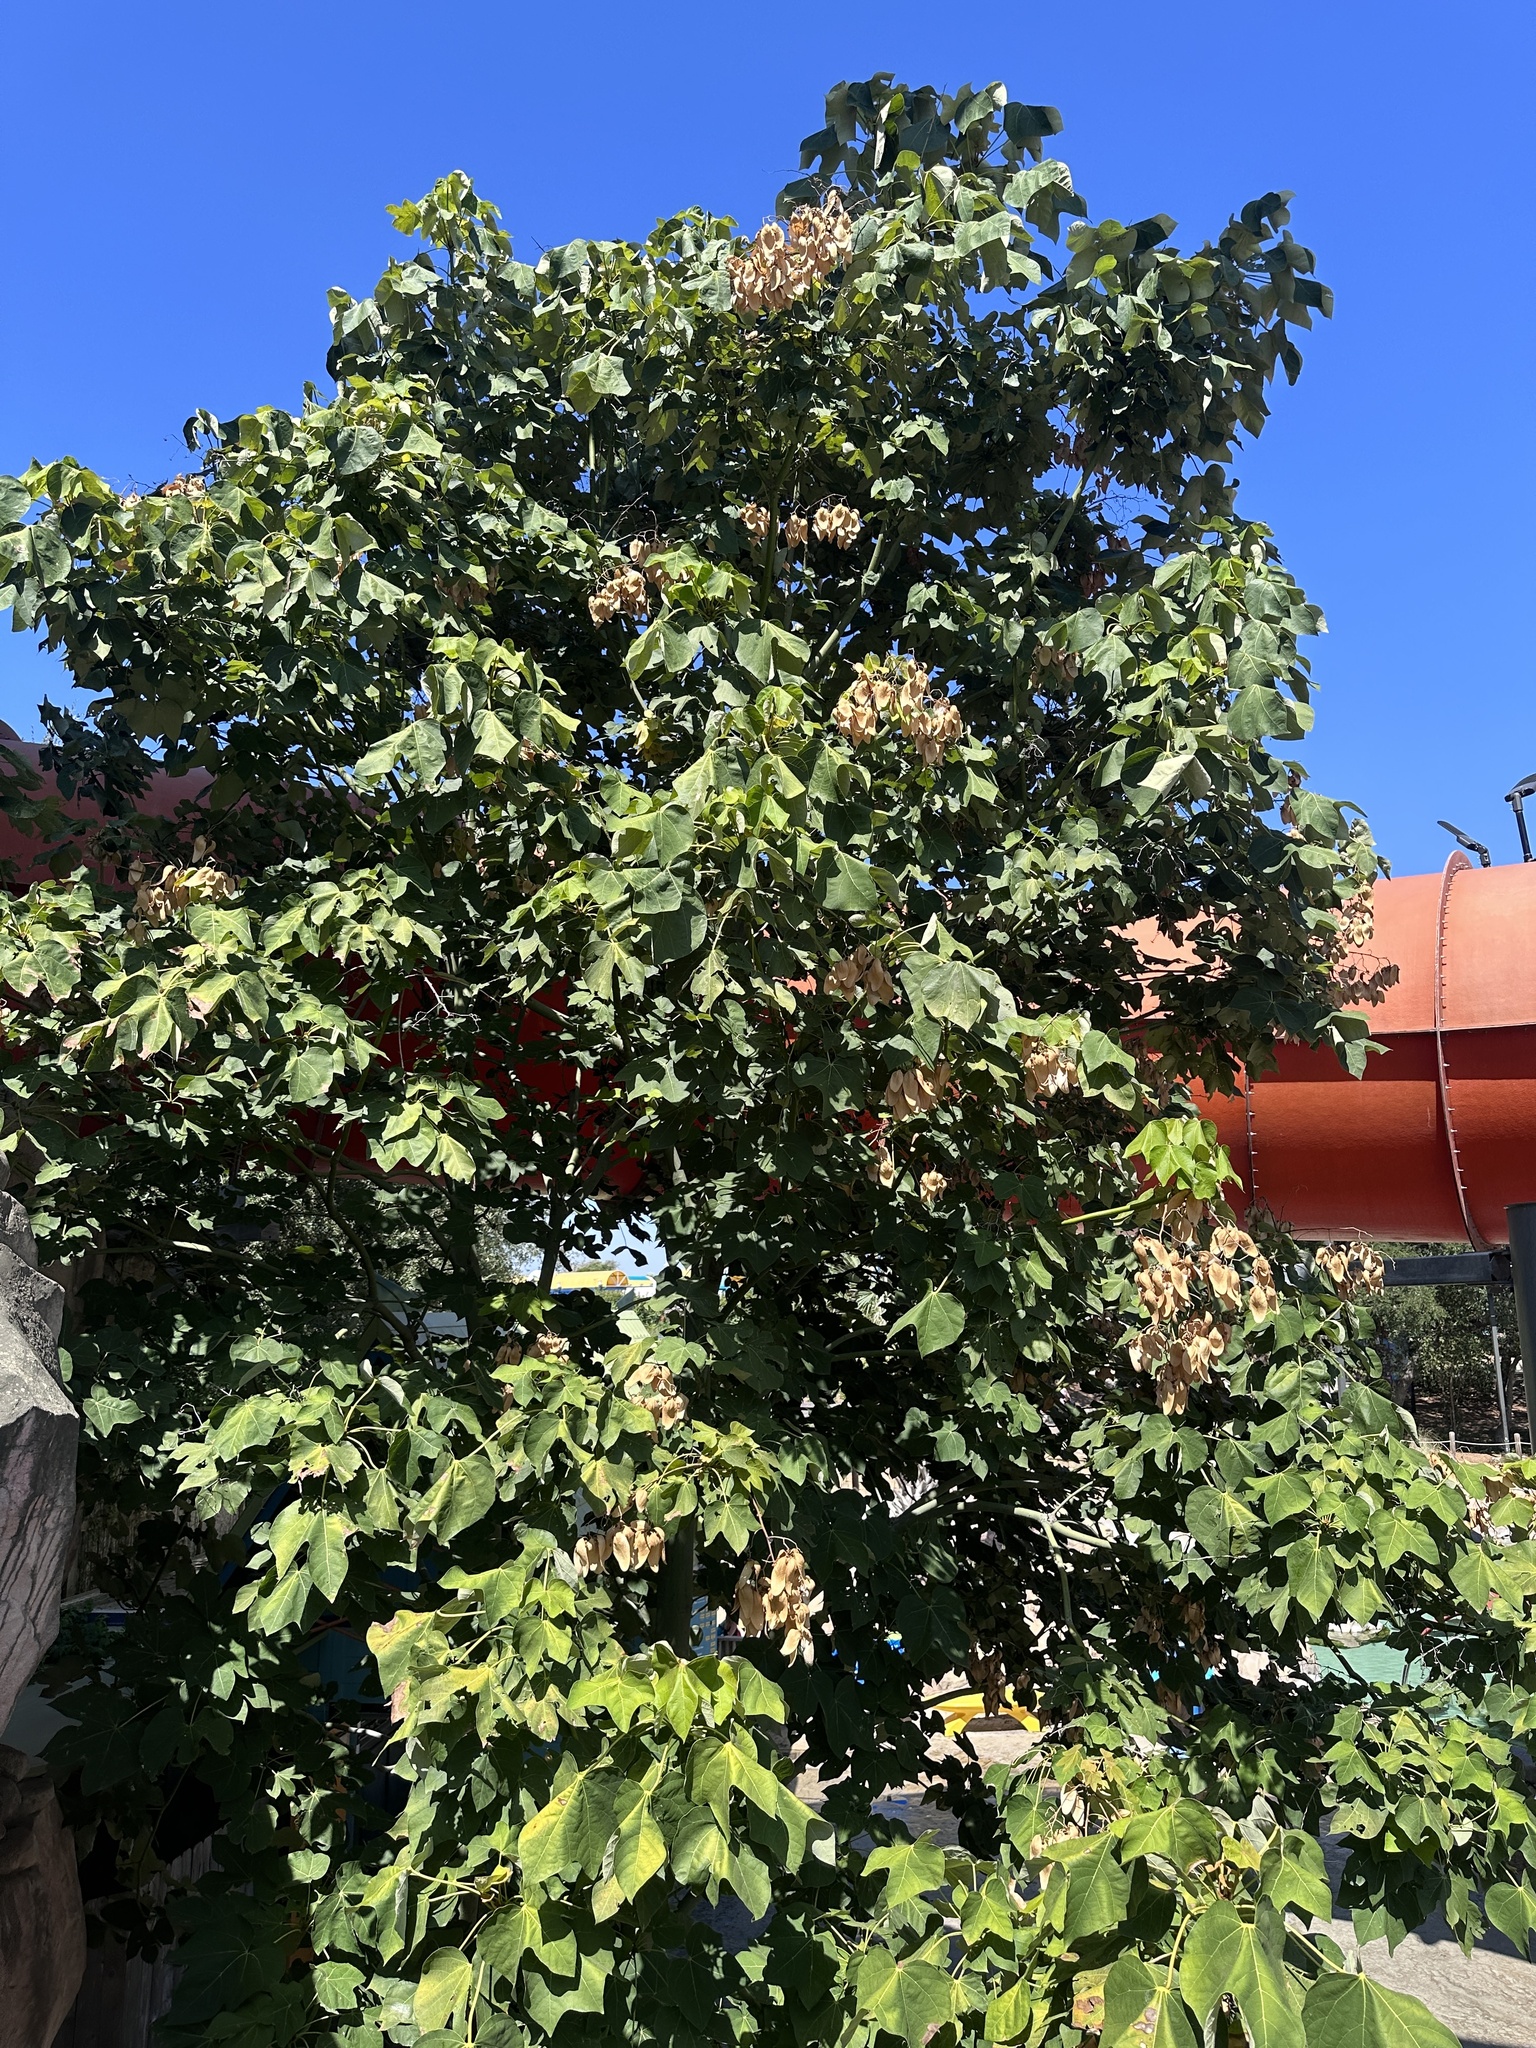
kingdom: Plantae
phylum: Tracheophyta
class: Magnoliopsida
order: Malvales
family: Malvaceae
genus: Firmiana
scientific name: Firmiana simplex
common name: Chinese parasoltree
